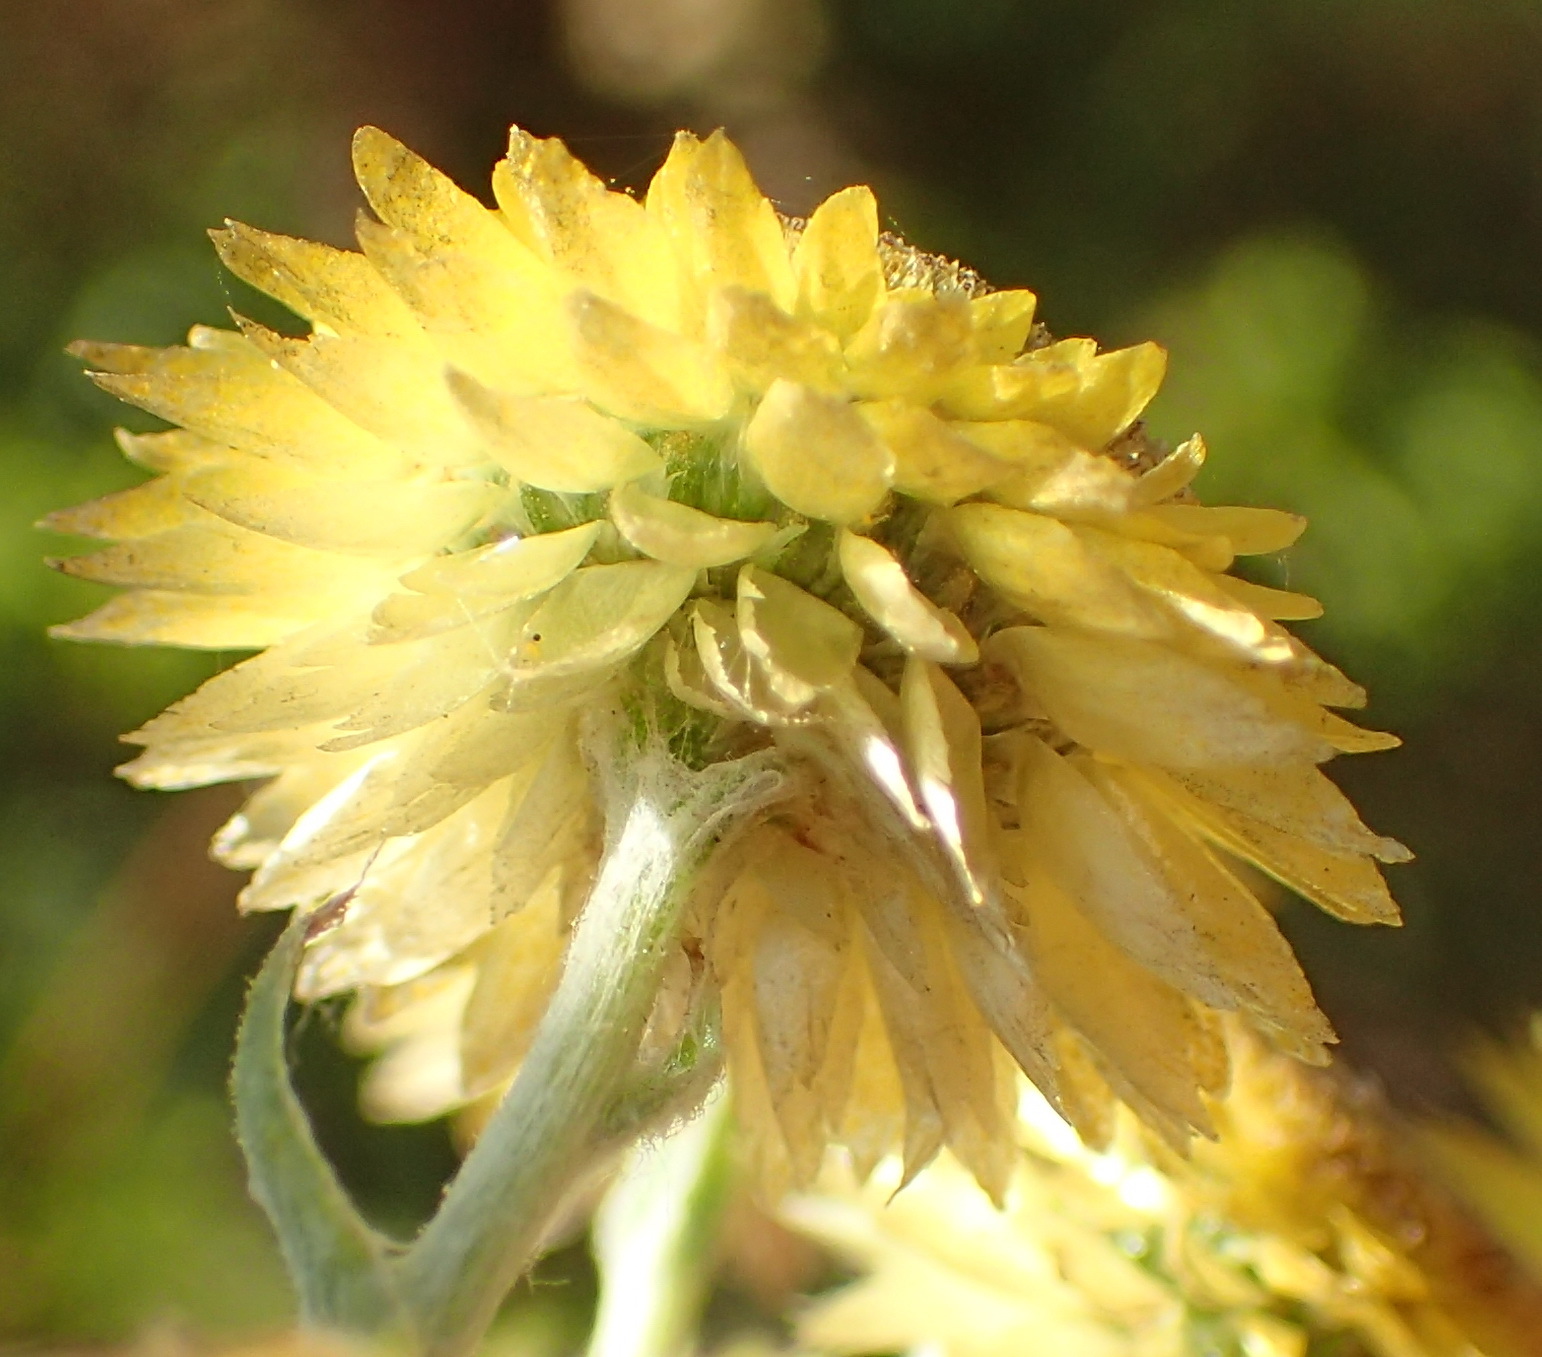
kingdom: Plantae
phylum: Tracheophyta
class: Magnoliopsida
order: Asterales
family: Asteraceae
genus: Helichrysum
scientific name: Helichrysum foetidum
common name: Stinking everlasting
